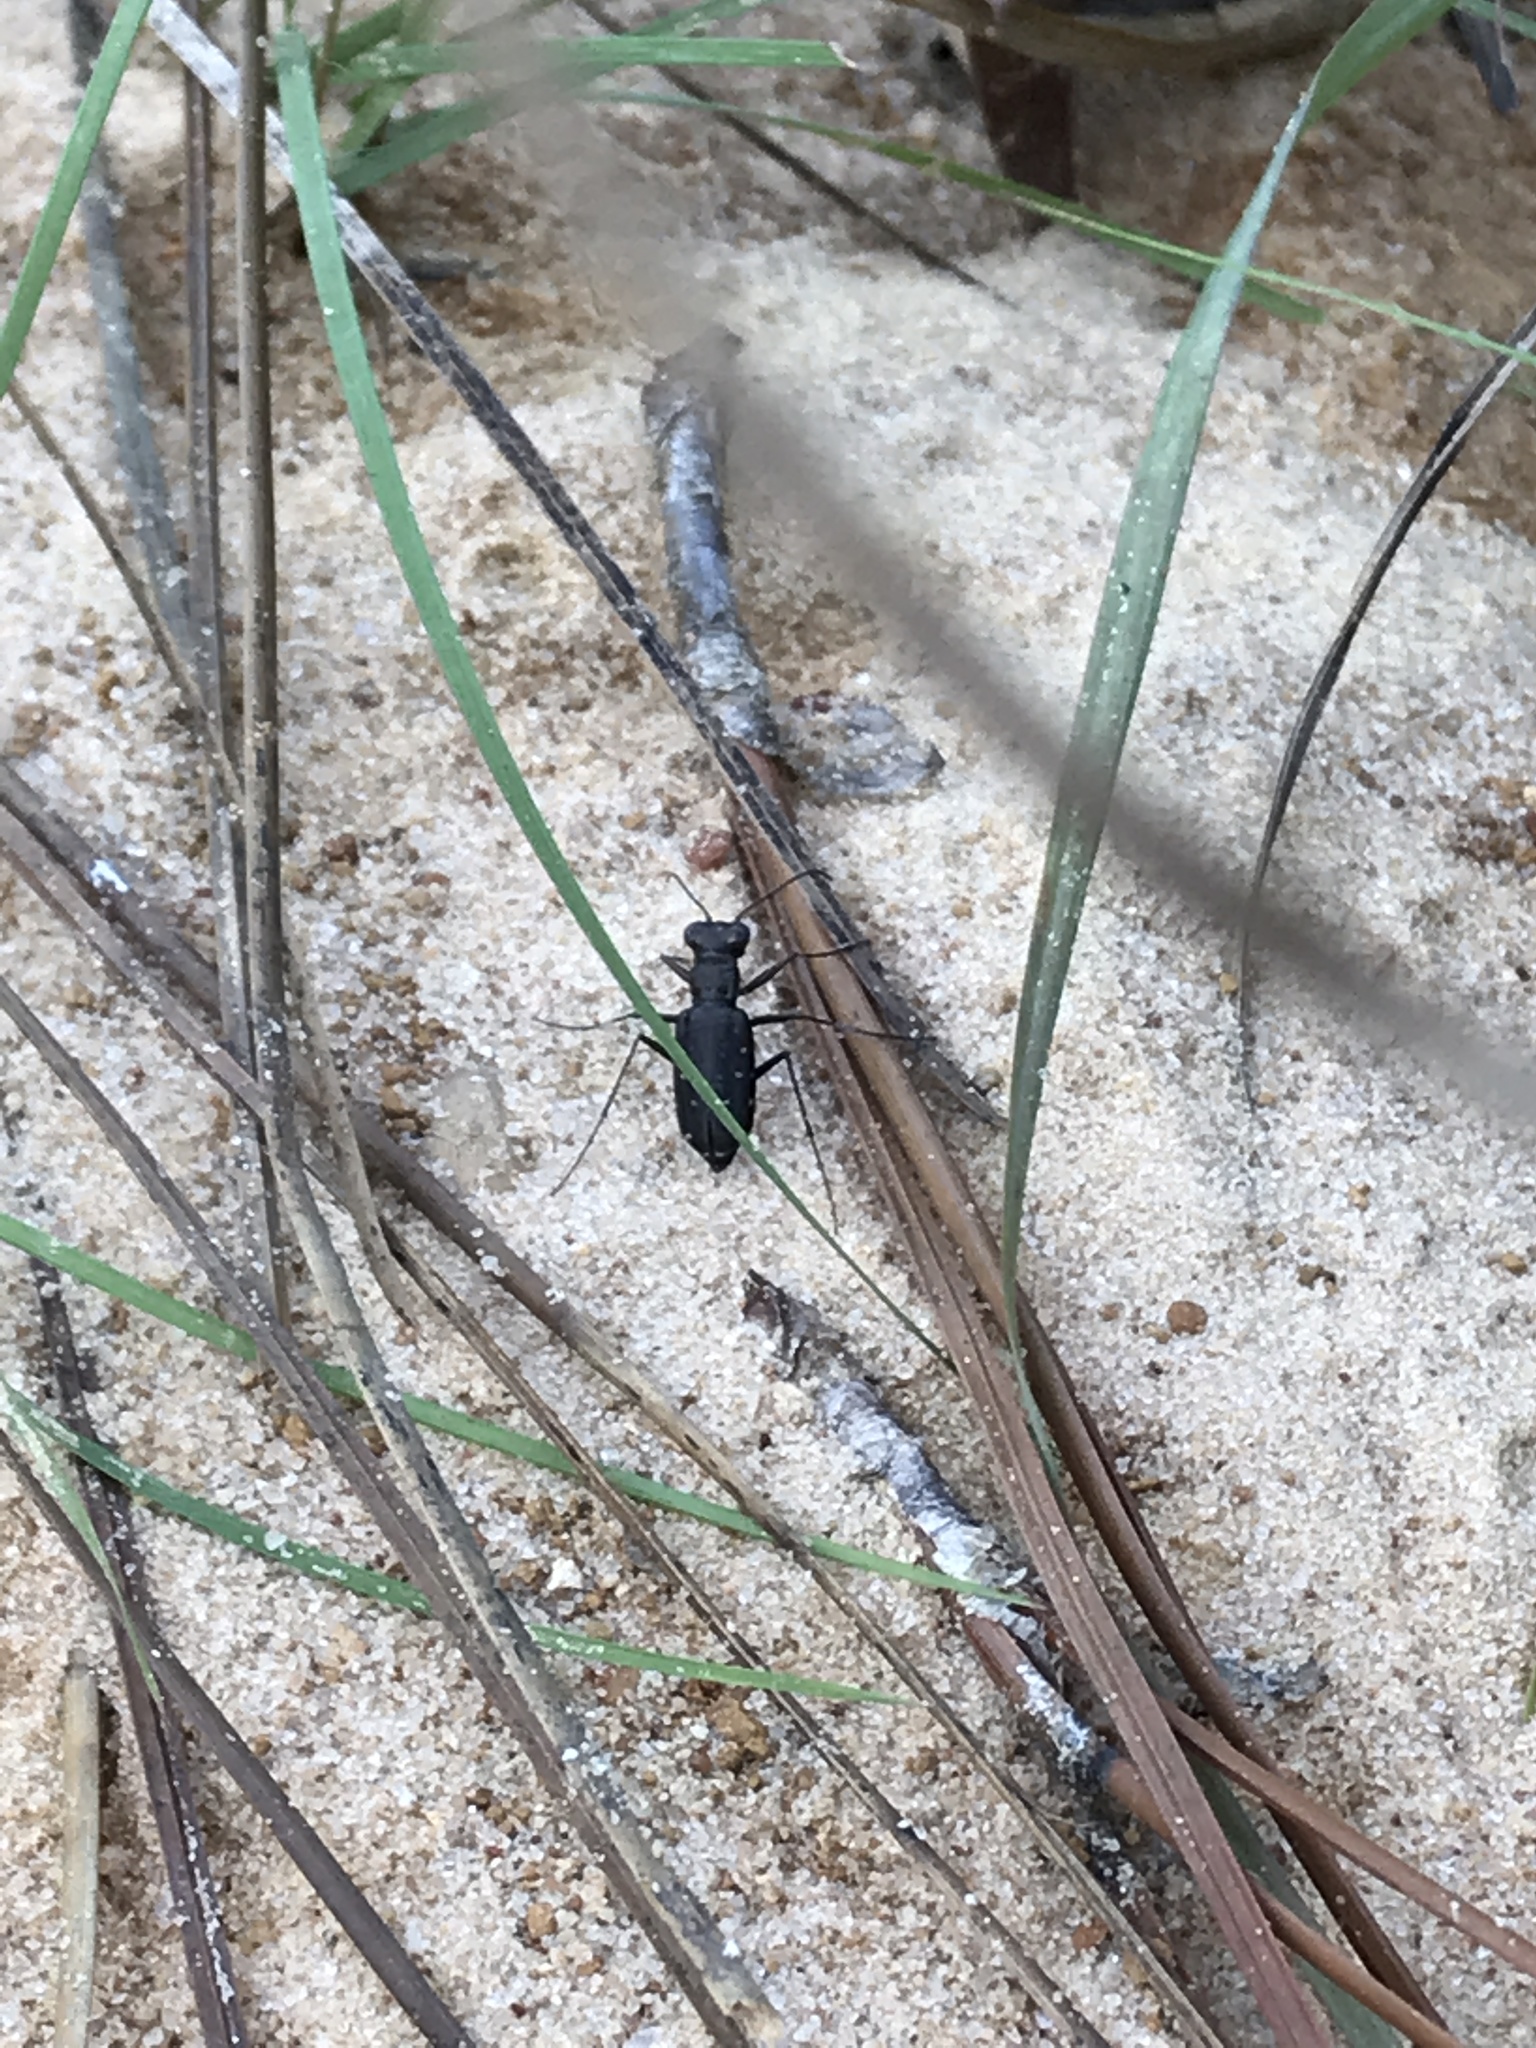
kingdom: Animalia
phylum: Arthropoda
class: Insecta
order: Coleoptera
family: Carabidae
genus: Cicindela
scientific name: Cicindela punctulata
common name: Punctured tiger beetle
